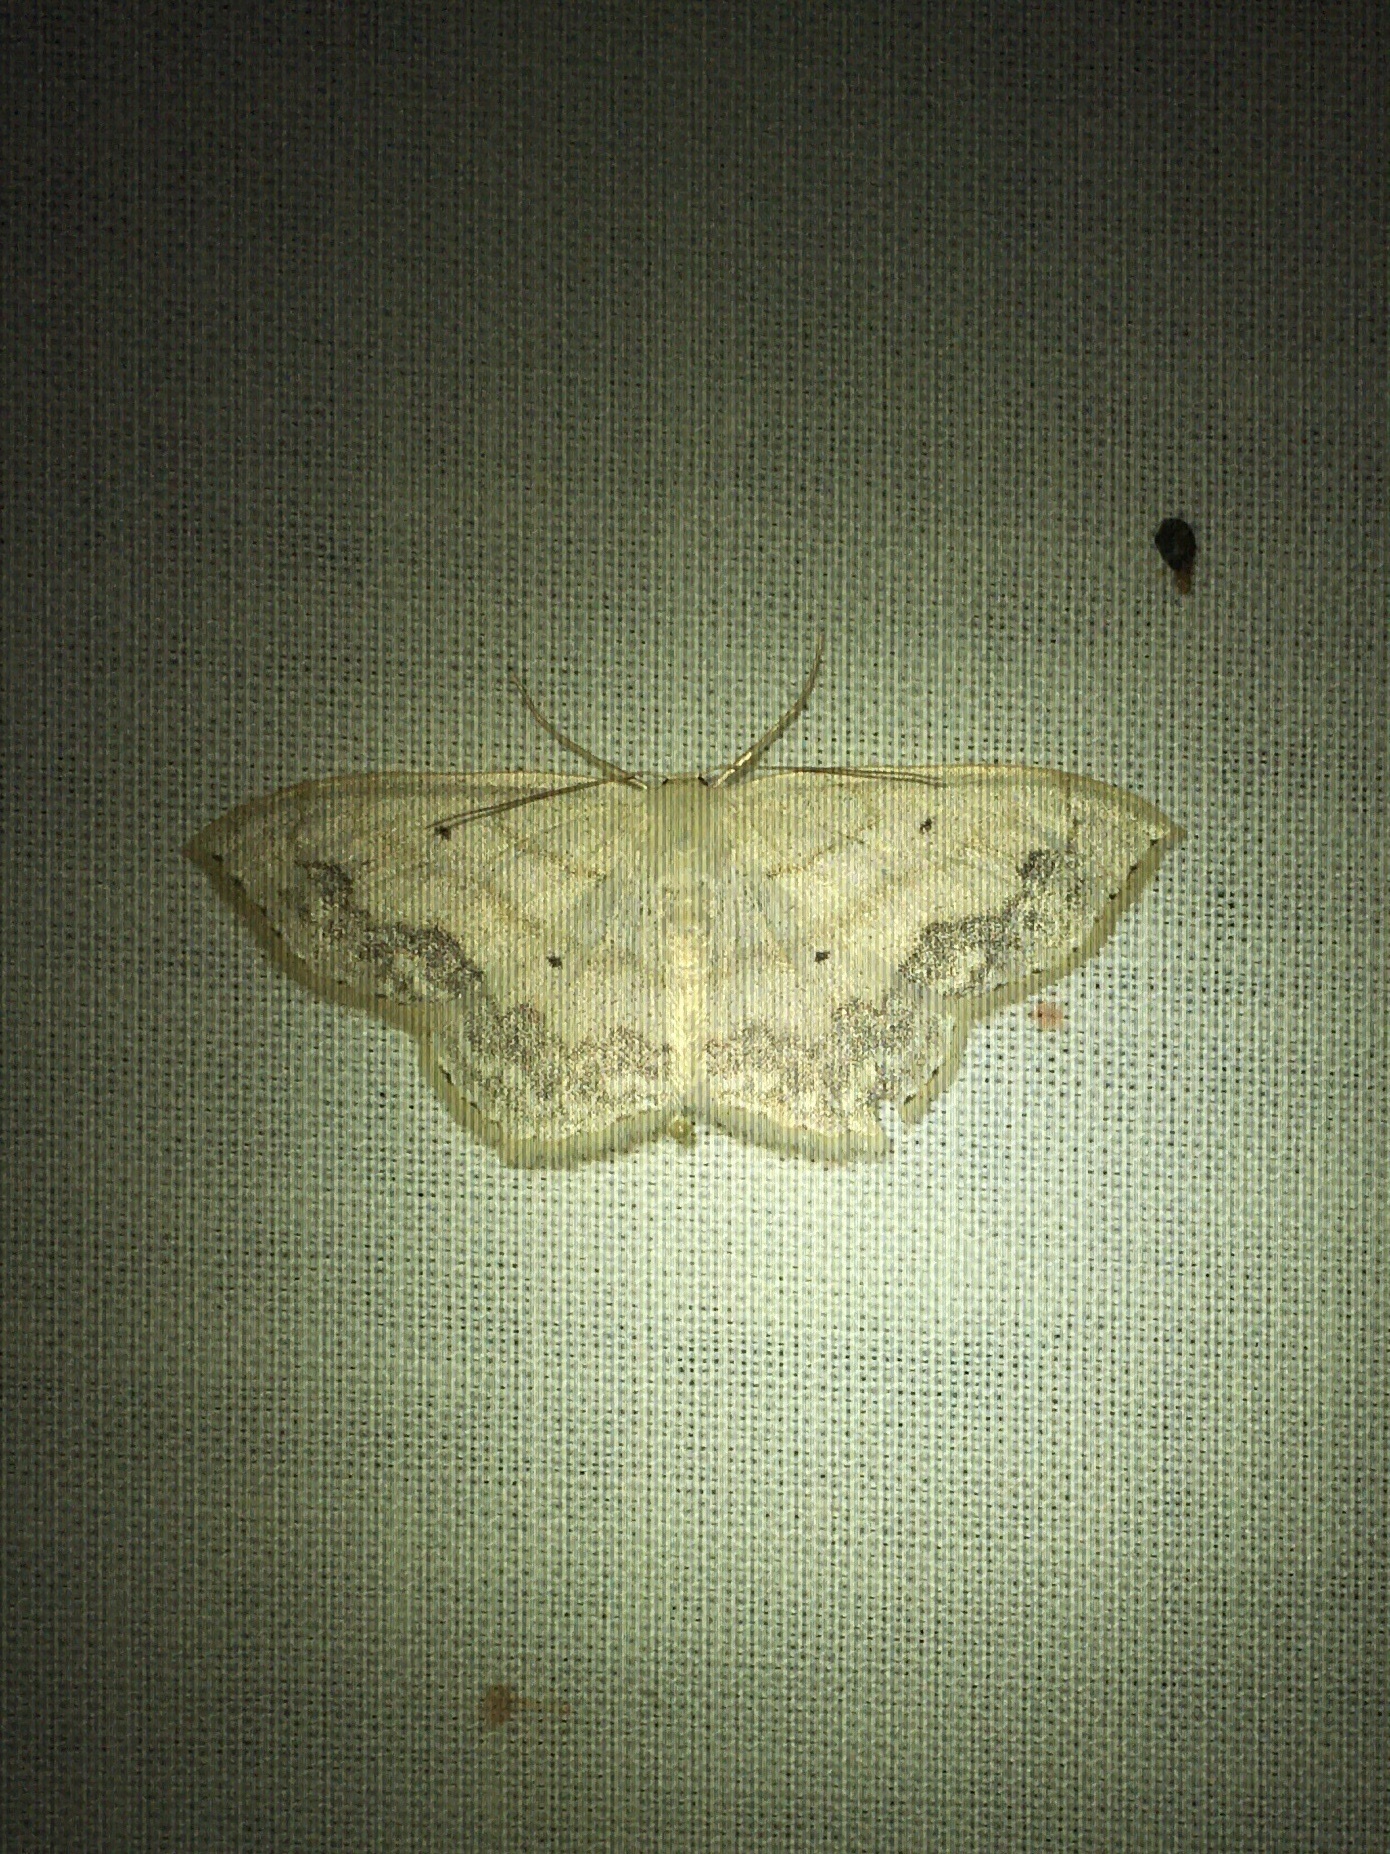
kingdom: Animalia
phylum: Arthropoda
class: Insecta
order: Lepidoptera
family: Geometridae
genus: Scopula
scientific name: Scopula limboundata
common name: Large lace border
